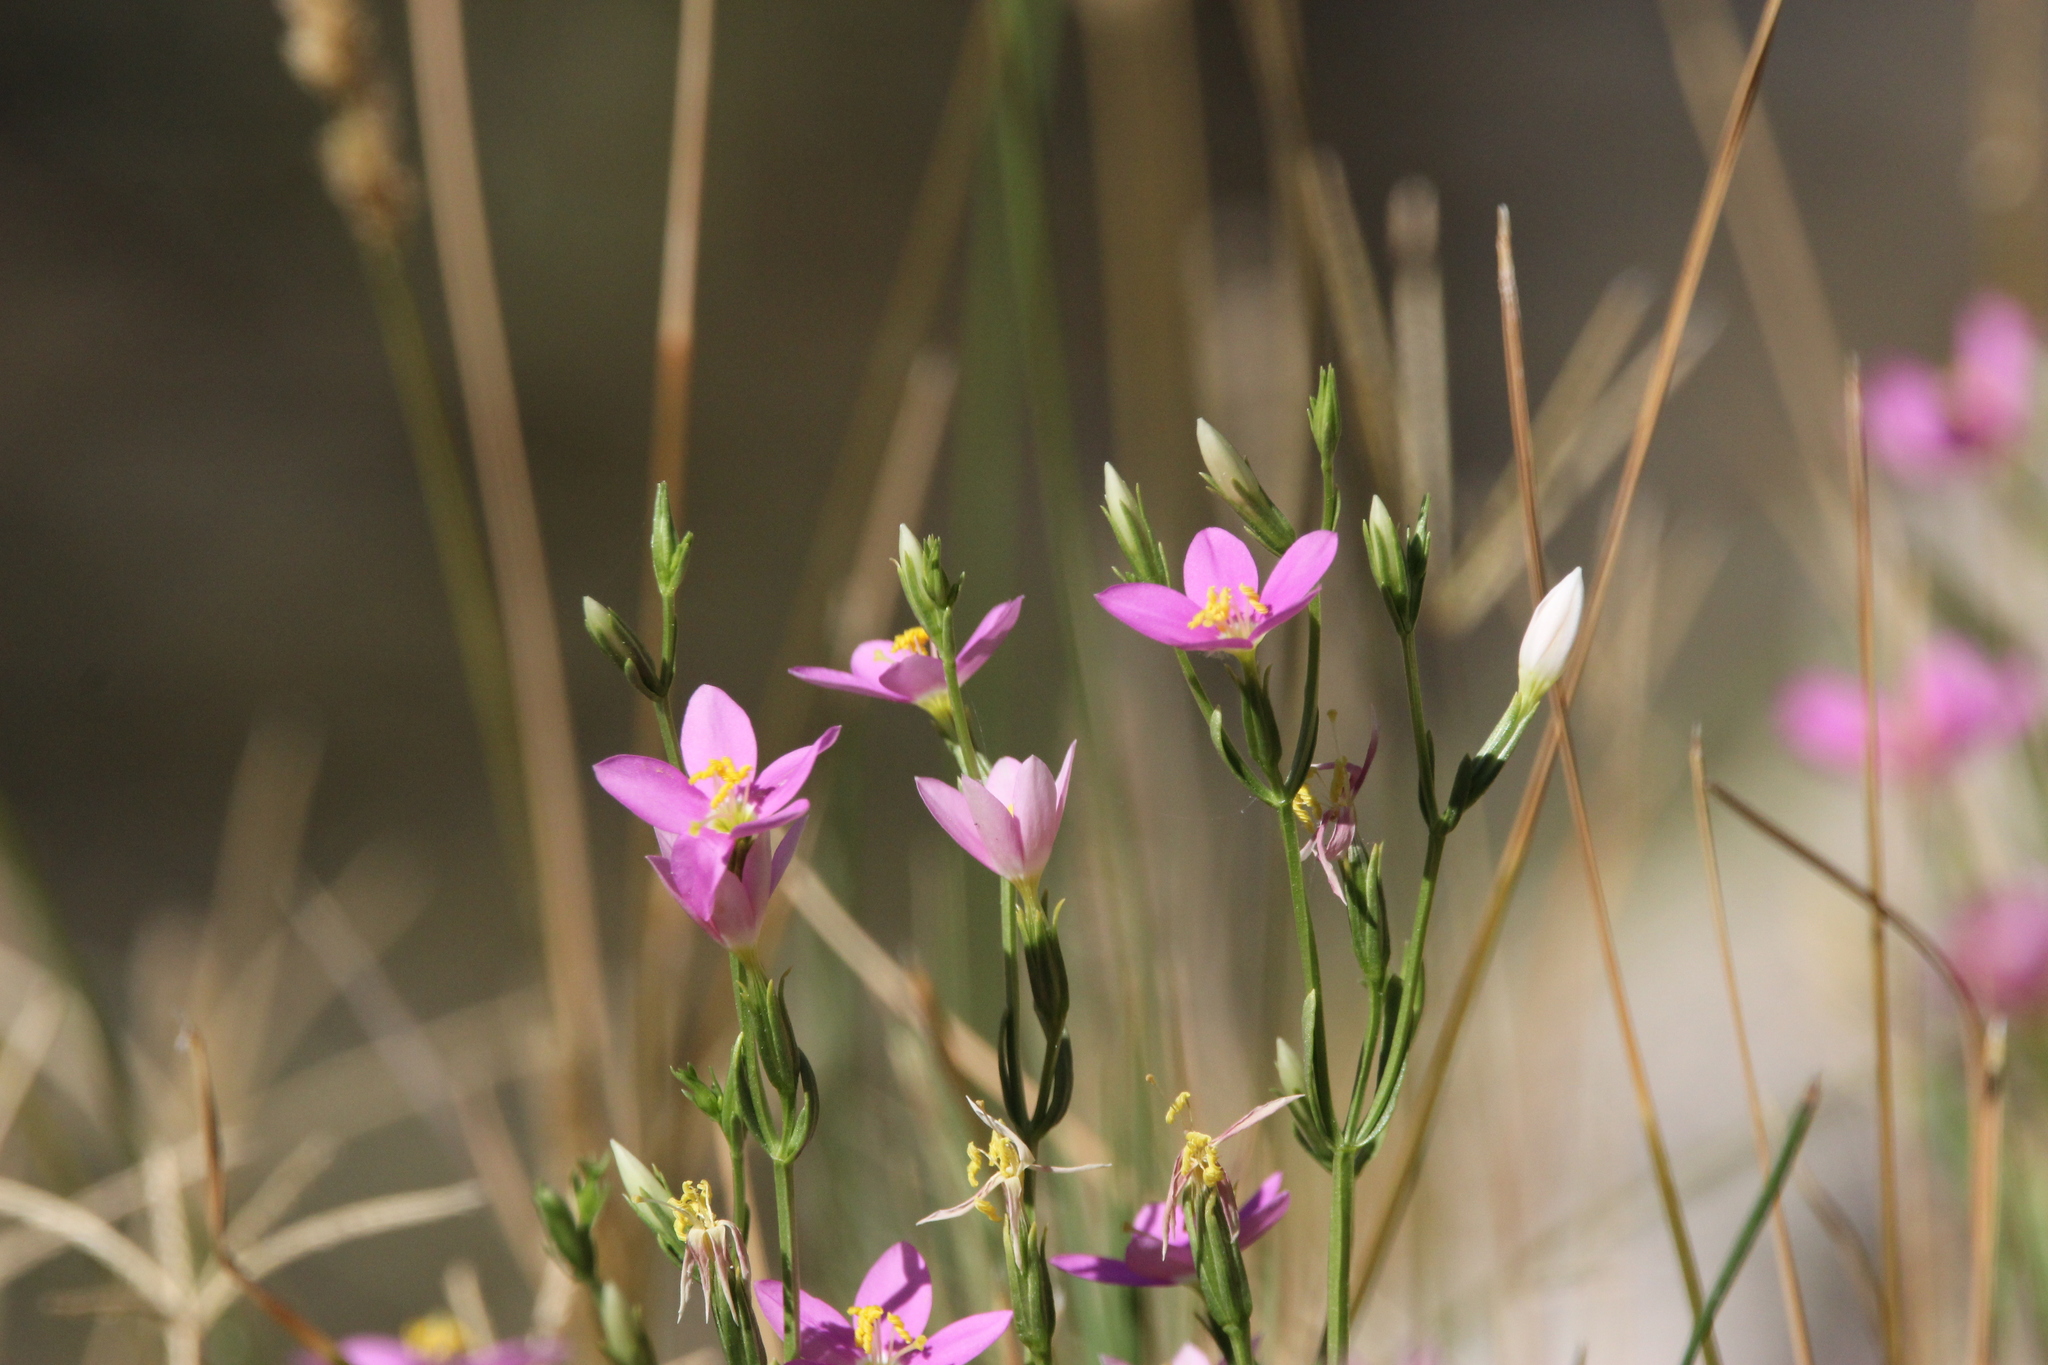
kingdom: Plantae
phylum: Tracheophyta
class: Magnoliopsida
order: Gentianales
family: Gentianaceae
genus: Zeltnera
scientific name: Zeltnera calycosa
